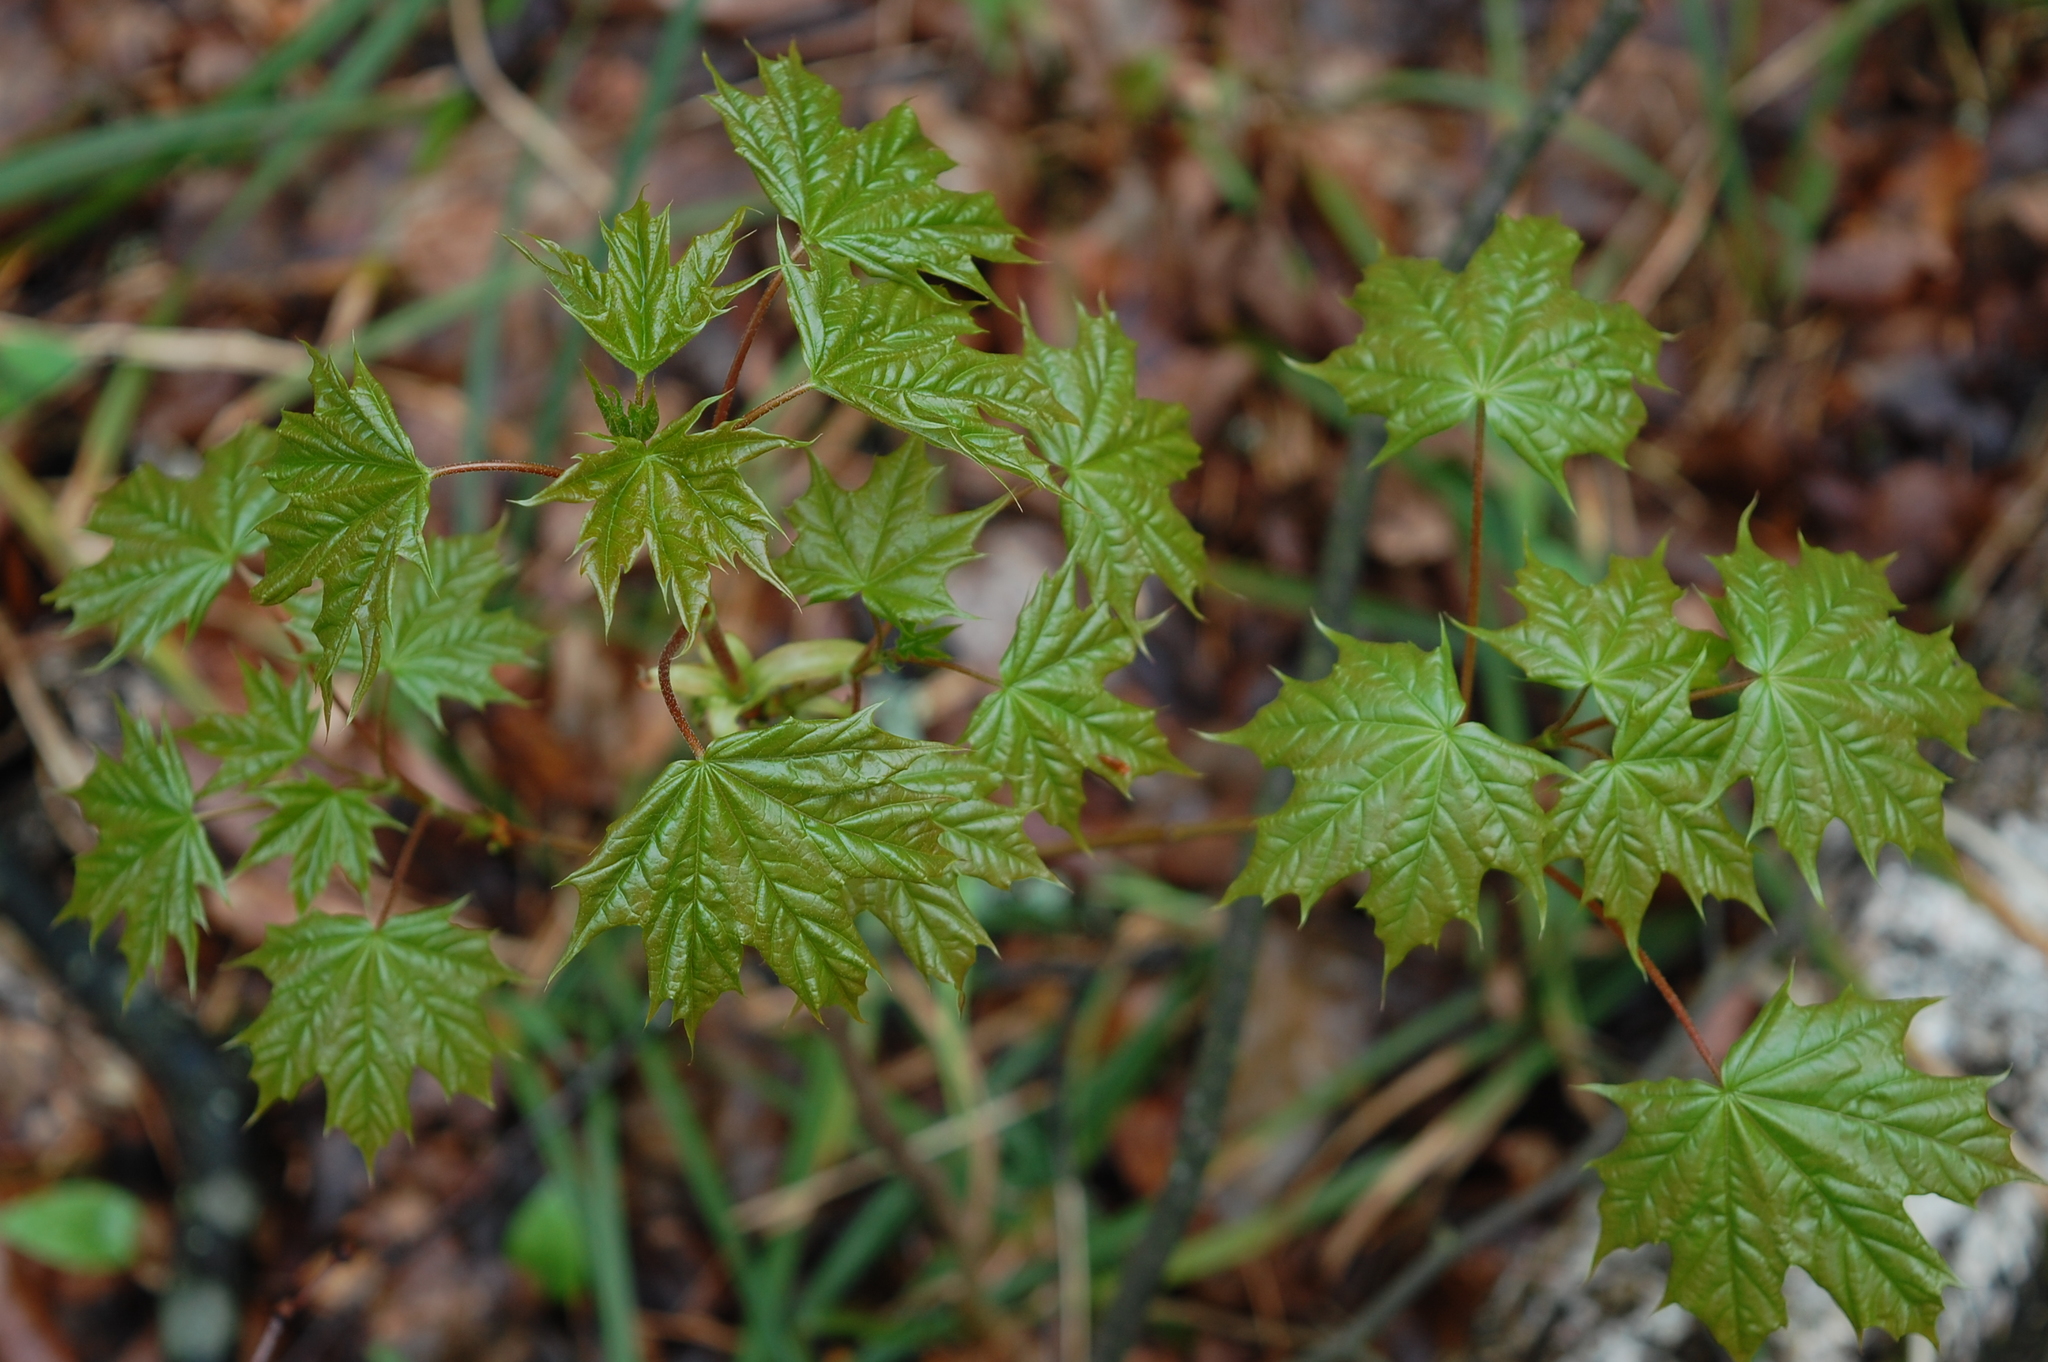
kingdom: Plantae
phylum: Tracheophyta
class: Magnoliopsida
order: Sapindales
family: Sapindaceae
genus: Acer
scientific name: Acer platanoides
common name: Norway maple
